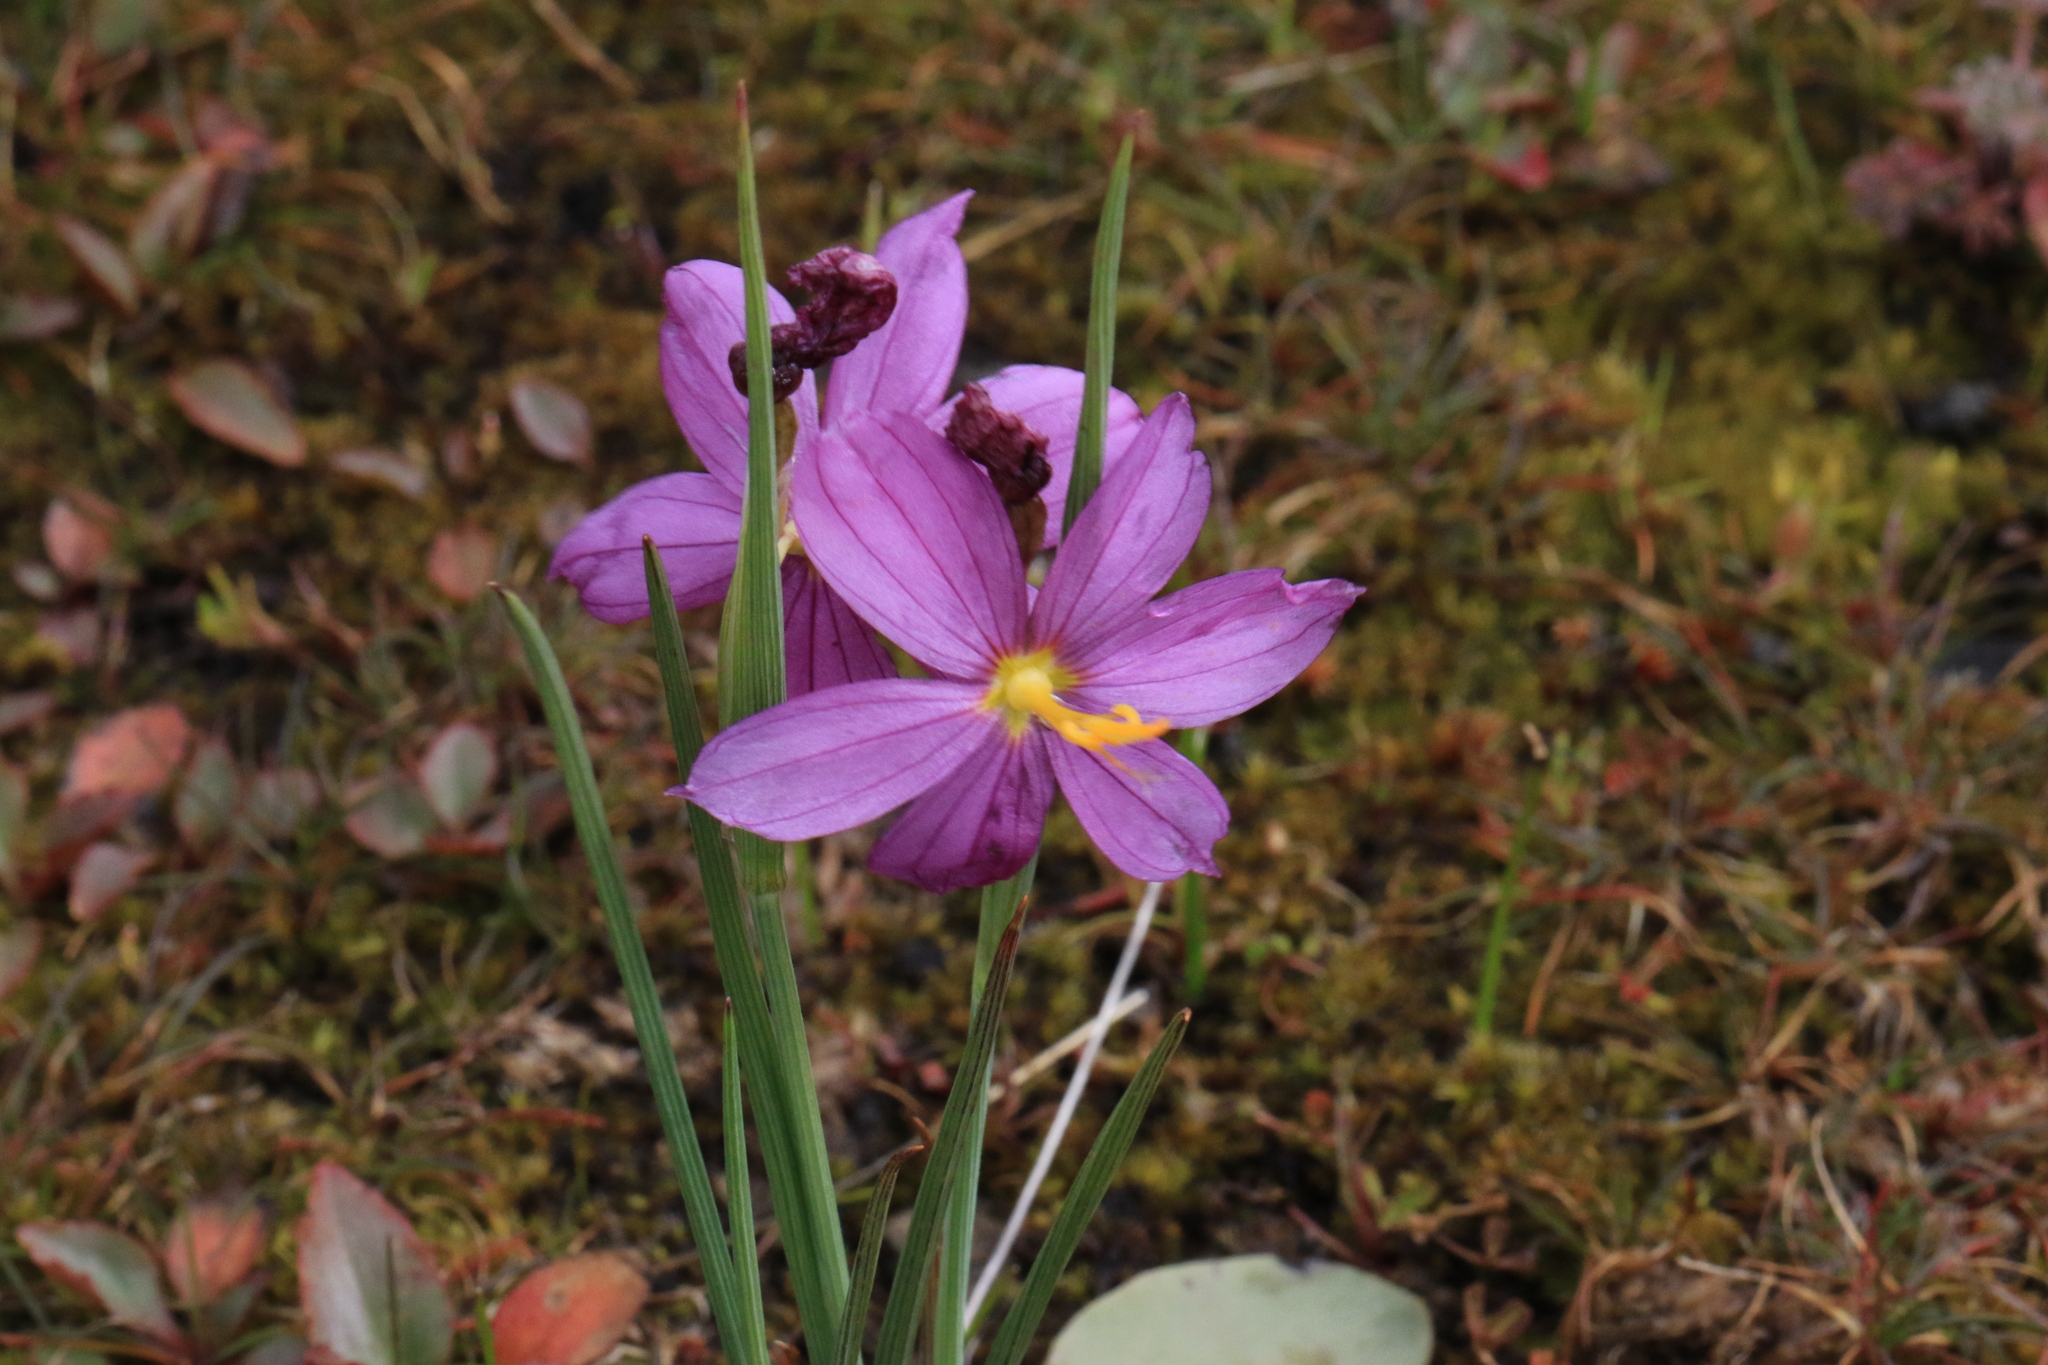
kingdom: Plantae
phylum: Tracheophyta
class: Liliopsida
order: Asparagales
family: Iridaceae
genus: Olsynium
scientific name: Olsynium douglasii
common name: Douglas' grasswidow
